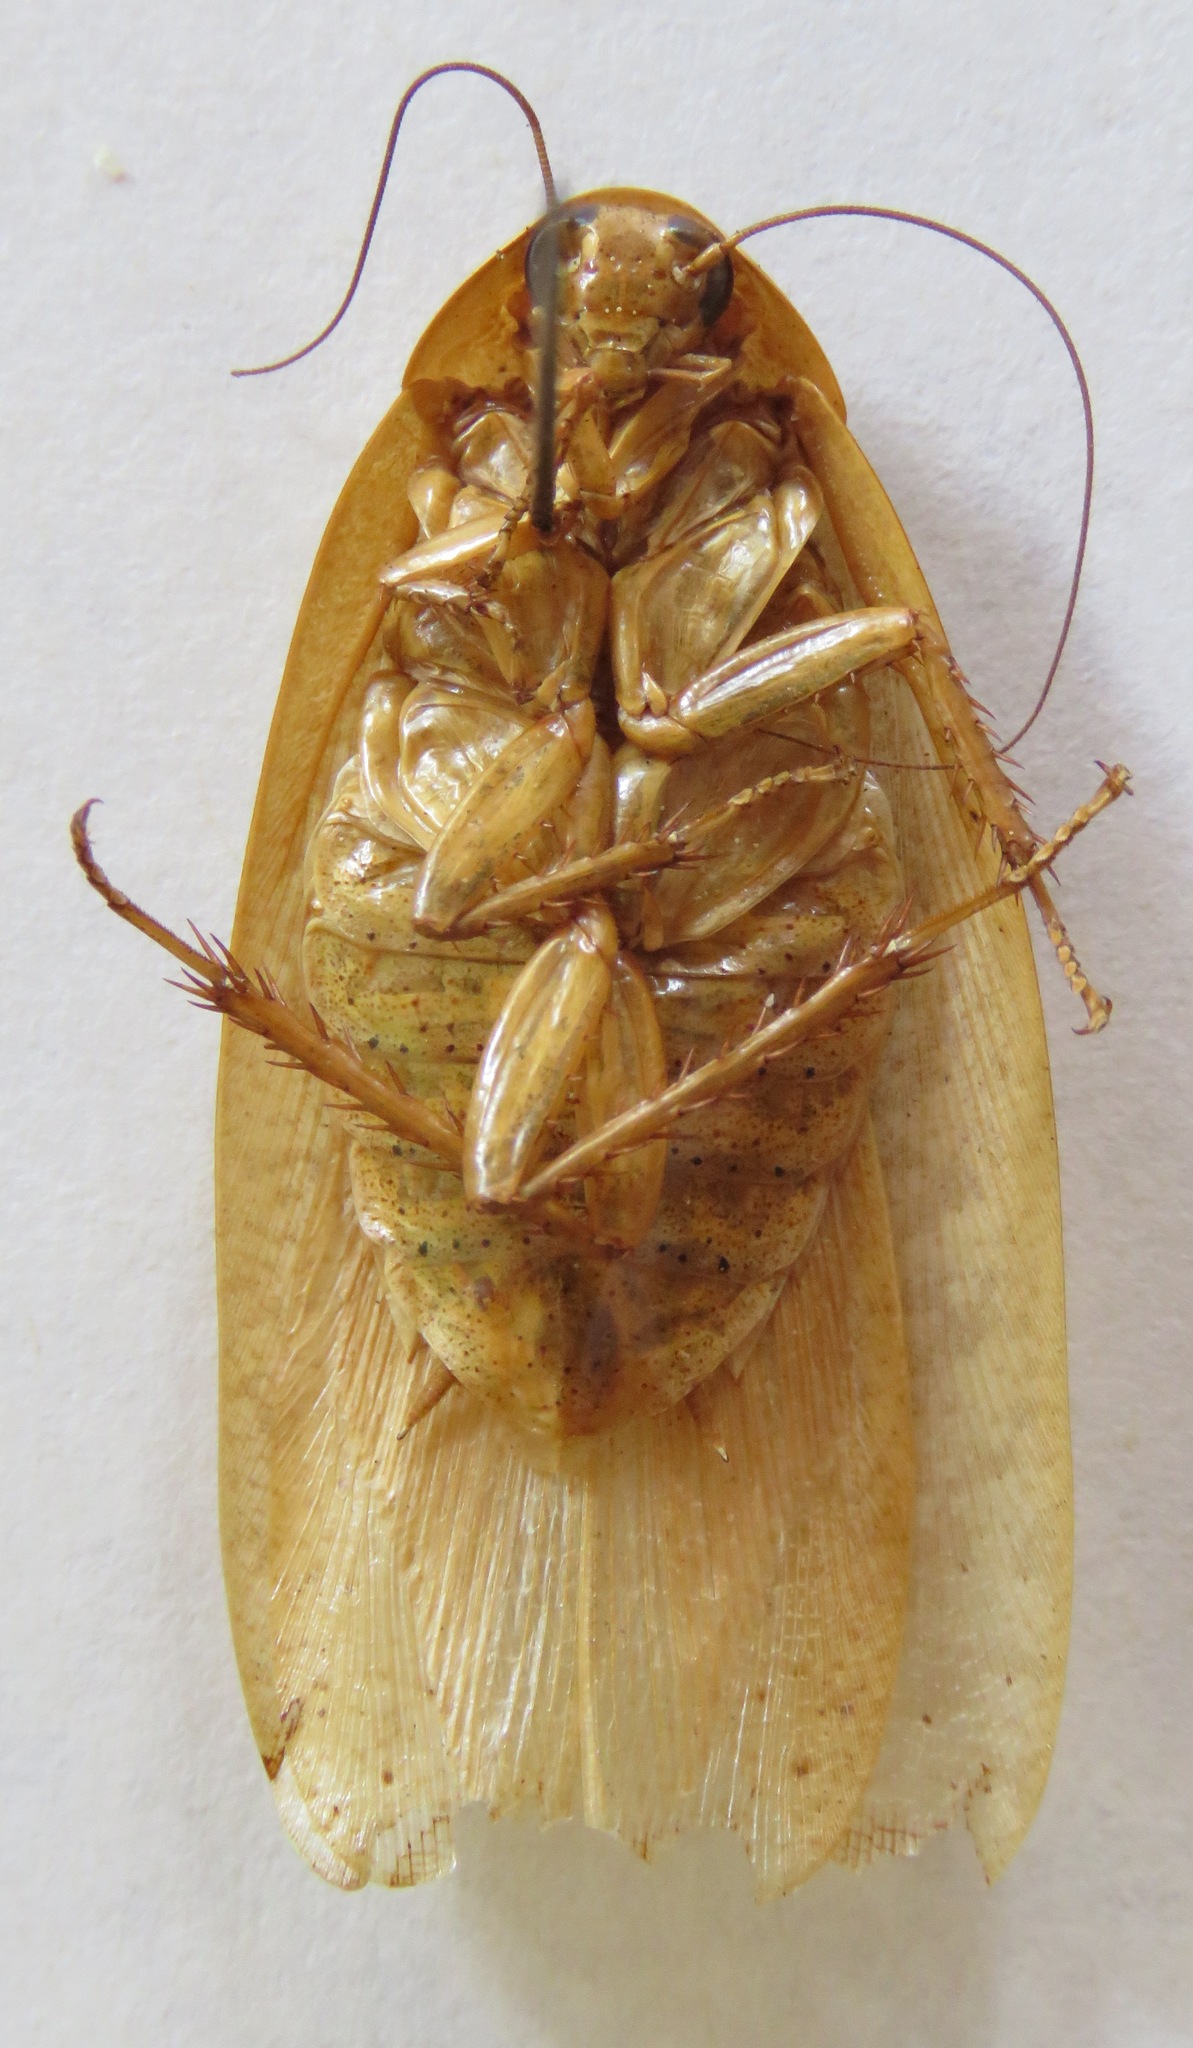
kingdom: Animalia
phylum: Arthropoda
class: Insecta
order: Blattodea
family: Blaberidae
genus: Epilampra
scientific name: Epilampra maya
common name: Maya cockroach
